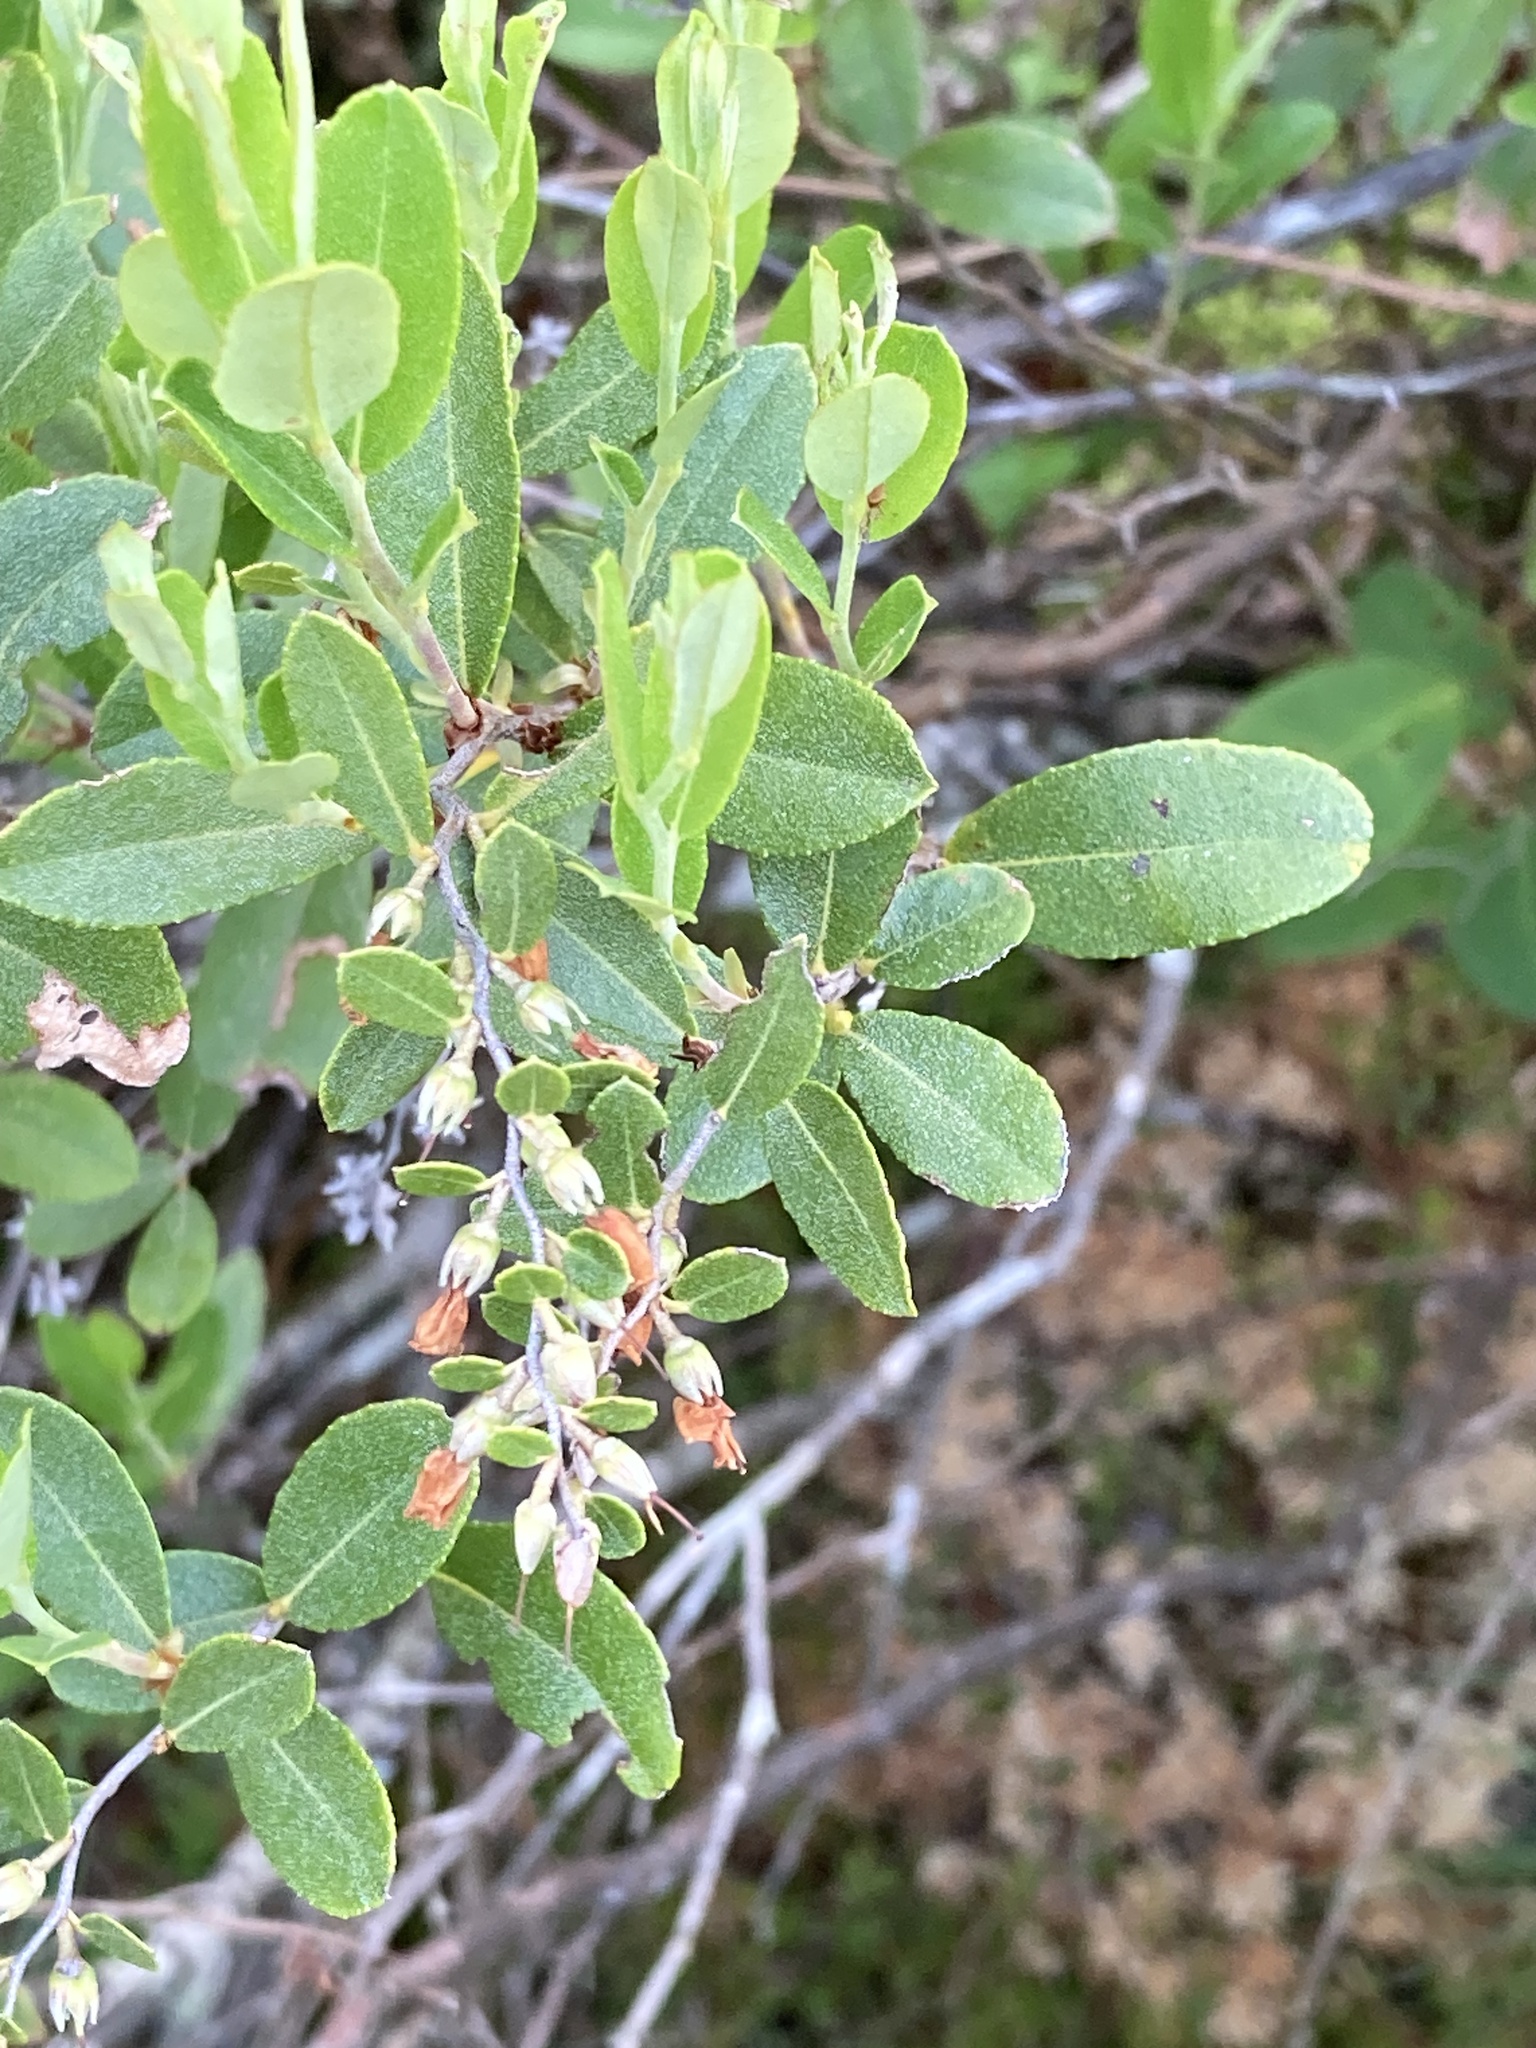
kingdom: Plantae
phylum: Tracheophyta
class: Magnoliopsida
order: Ericales
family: Ericaceae
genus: Chamaedaphne
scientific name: Chamaedaphne calyculata
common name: Leatherleaf
